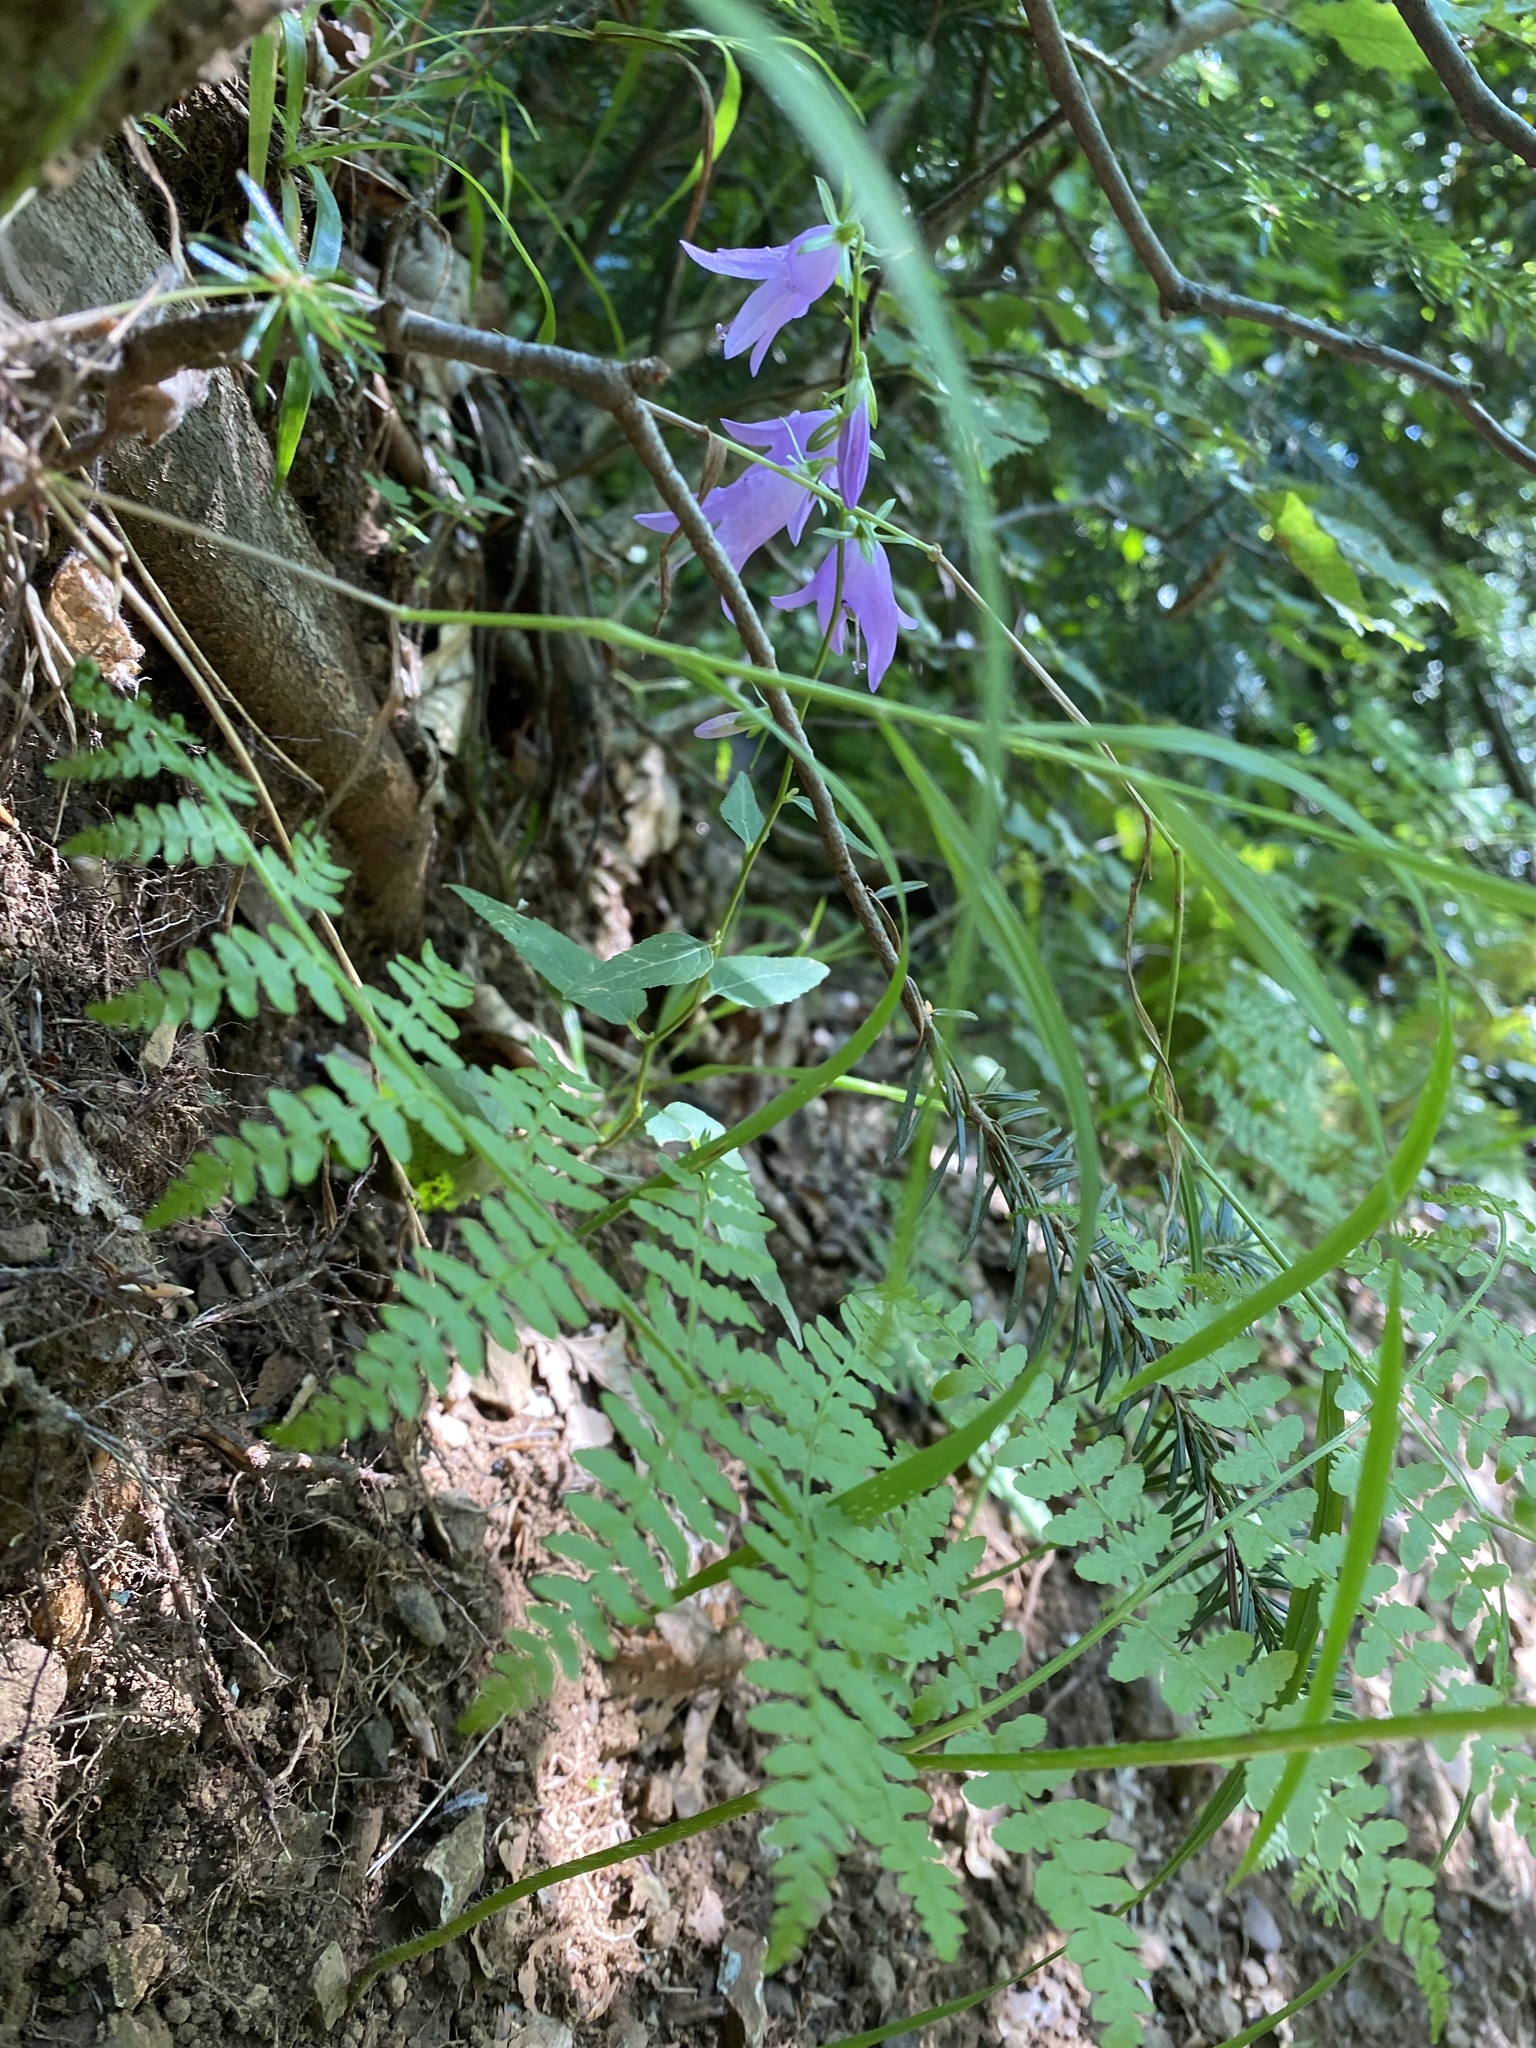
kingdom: Plantae
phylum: Tracheophyta
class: Magnoliopsida
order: Asterales
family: Campanulaceae
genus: Campanula
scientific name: Campanula rapunculoides
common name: Creeping bellflower
